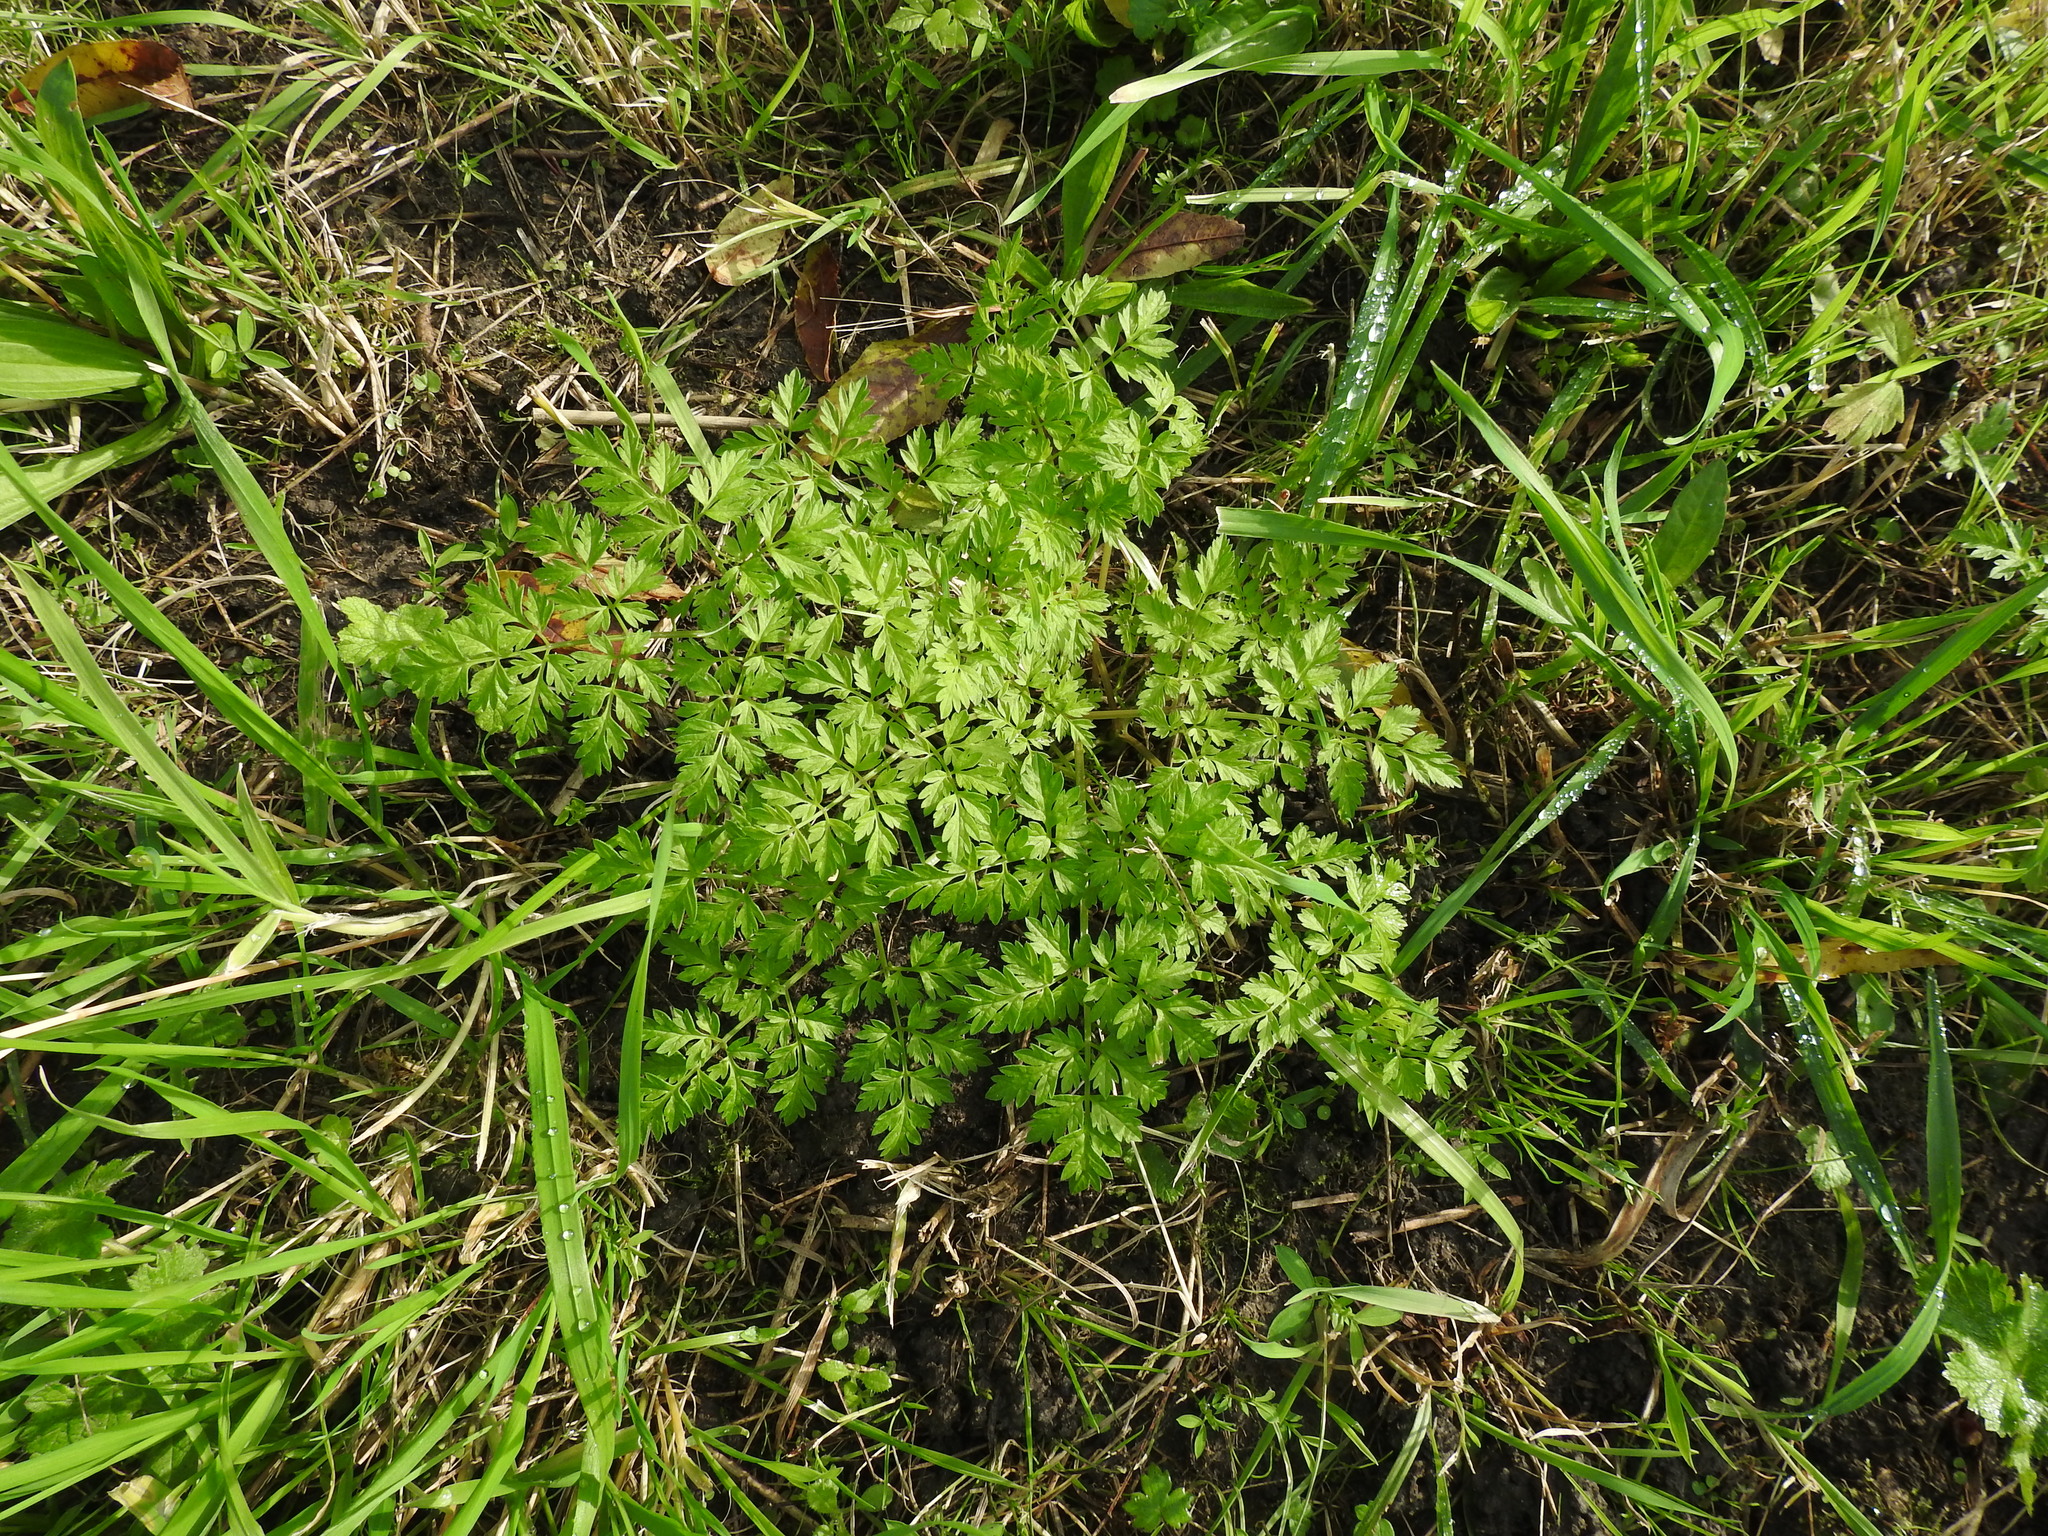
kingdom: Plantae
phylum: Tracheophyta
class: Magnoliopsida
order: Apiales
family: Apiaceae
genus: Anthriscus
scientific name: Anthriscus sylvestris
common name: Cow parsley
